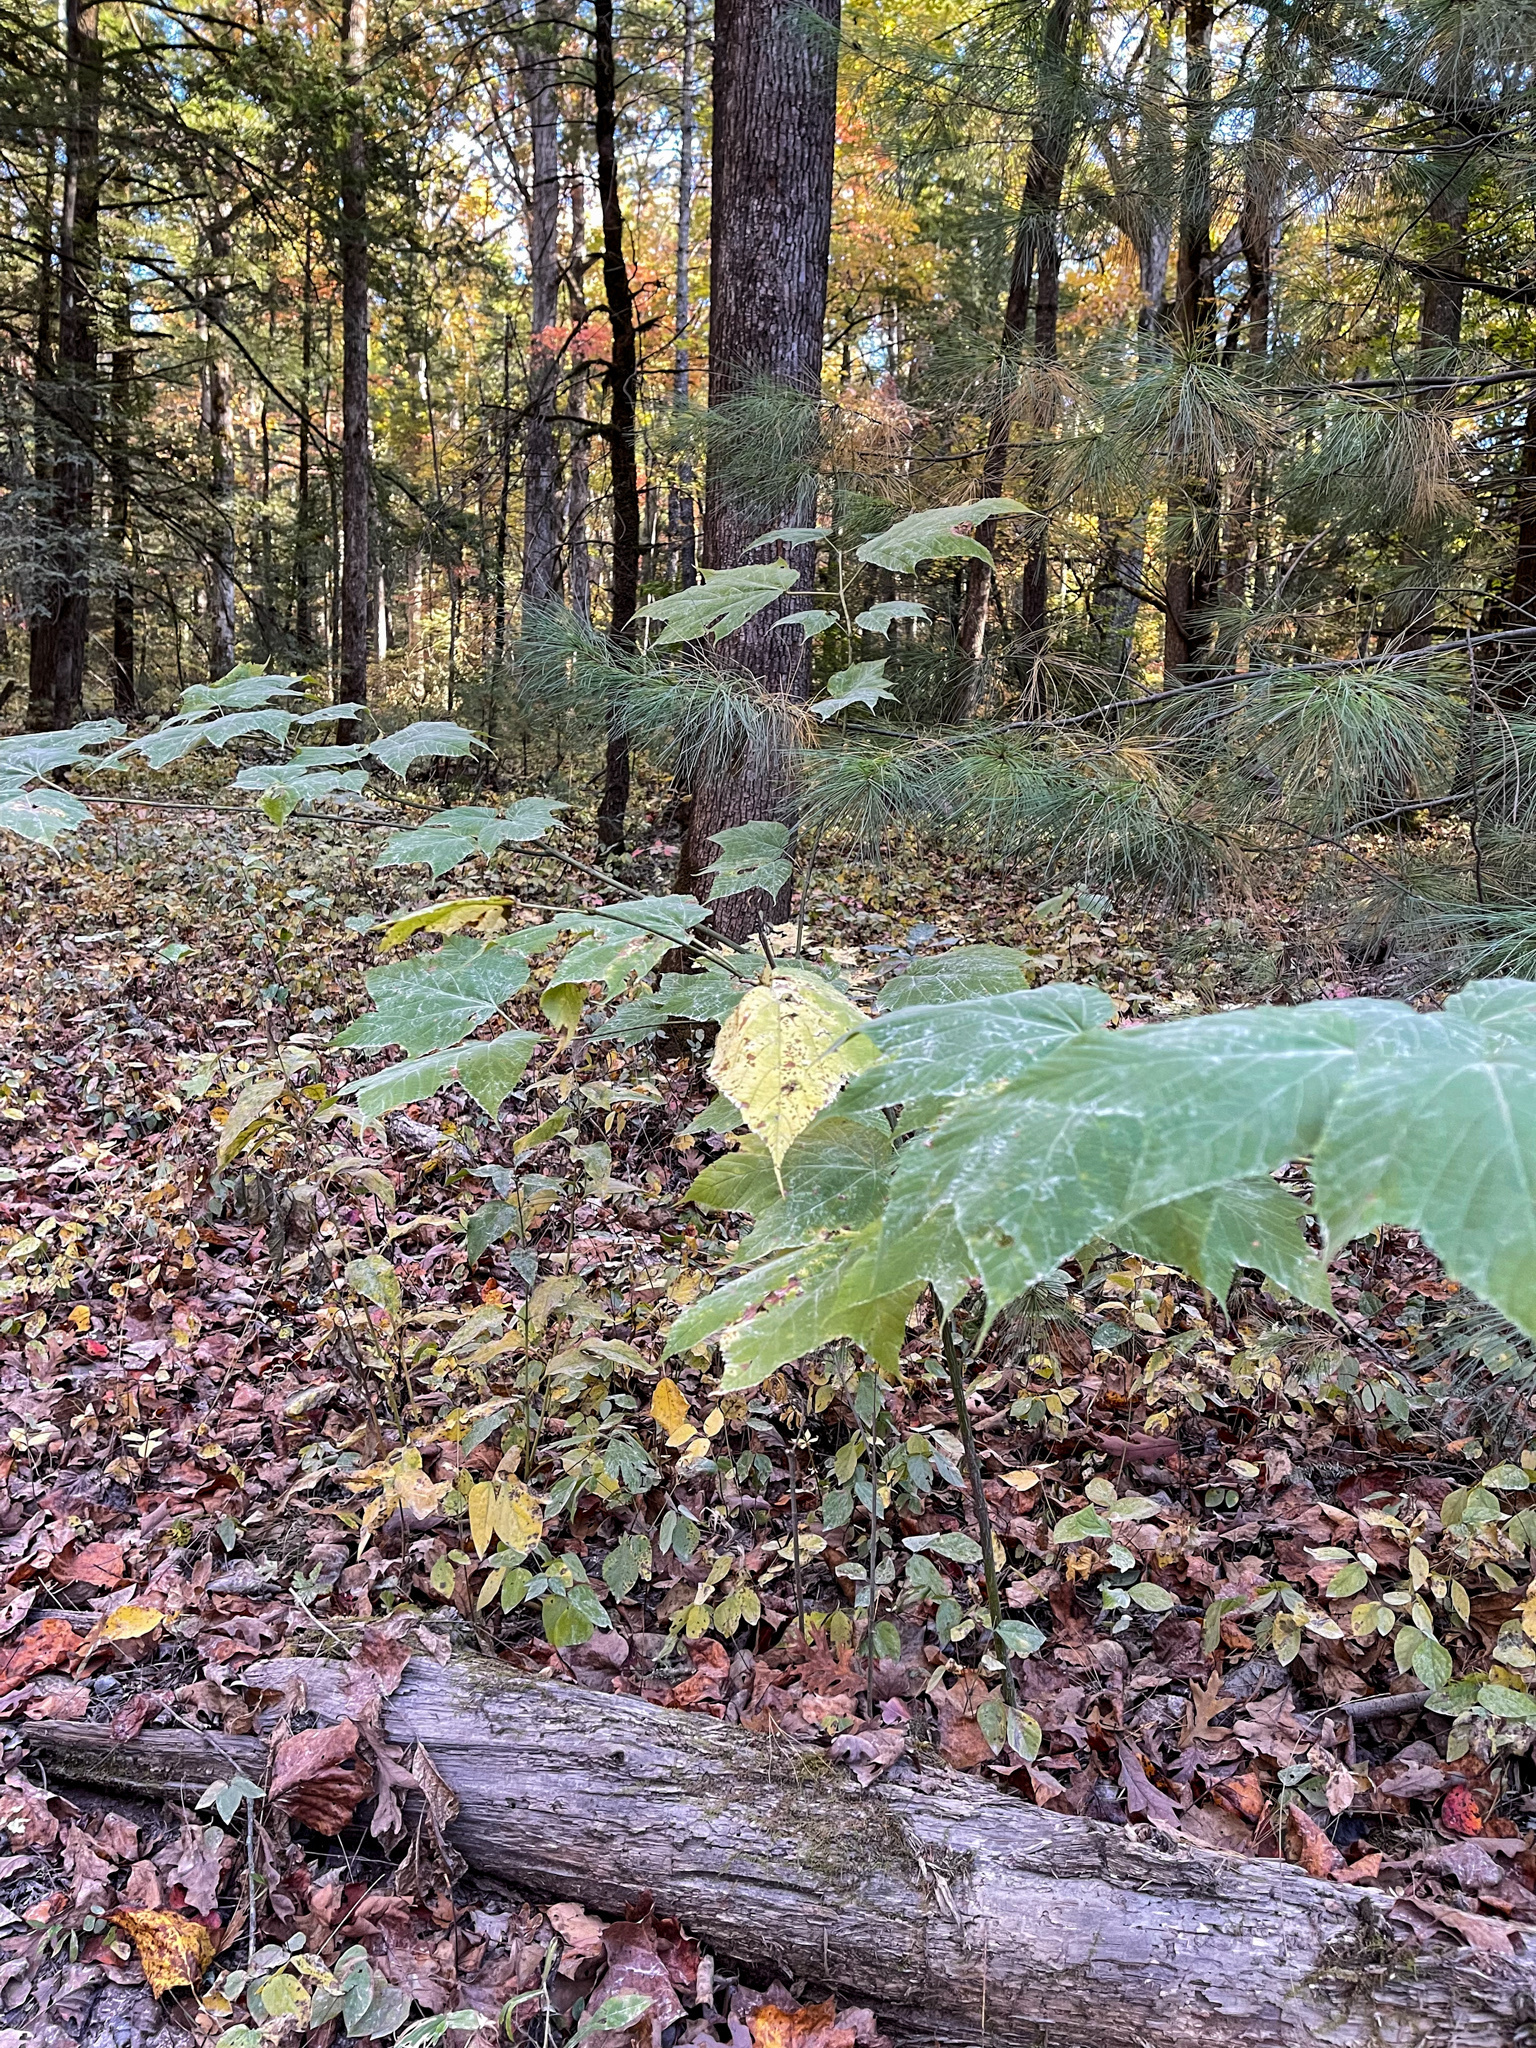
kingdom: Plantae
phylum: Tracheophyta
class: Magnoliopsida
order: Sapindales
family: Sapindaceae
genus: Acer
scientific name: Acer pensylvanicum
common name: Moosewood
